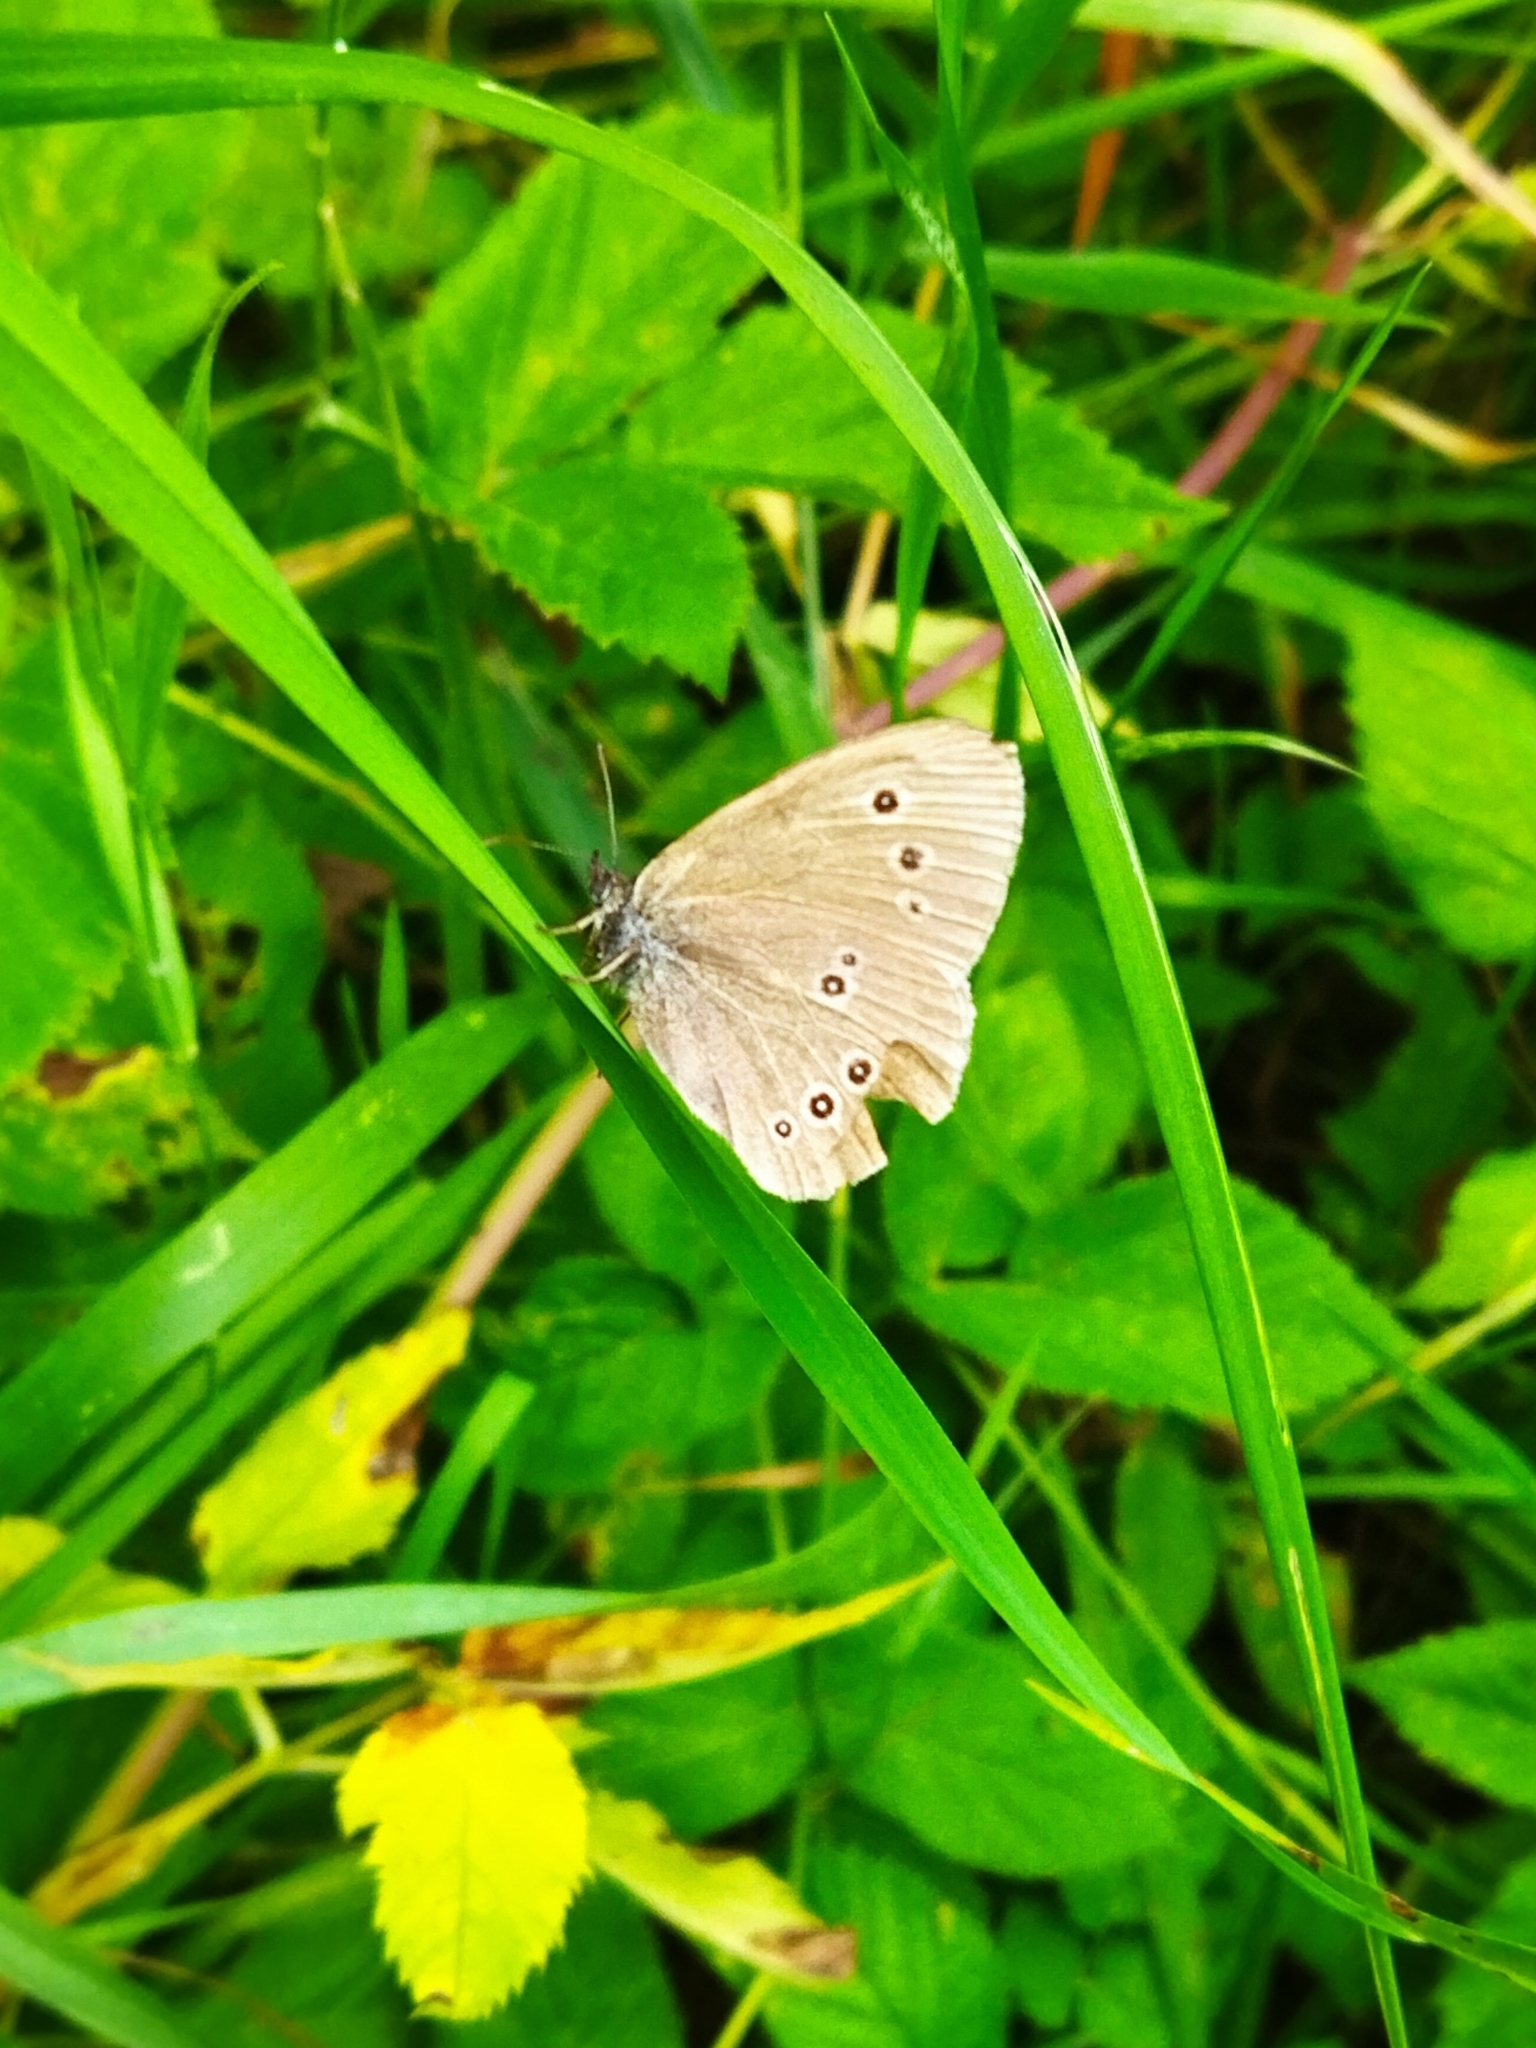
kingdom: Animalia
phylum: Arthropoda
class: Insecta
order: Lepidoptera
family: Nymphalidae
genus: Aphantopus
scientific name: Aphantopus hyperantus
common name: Ringlet
